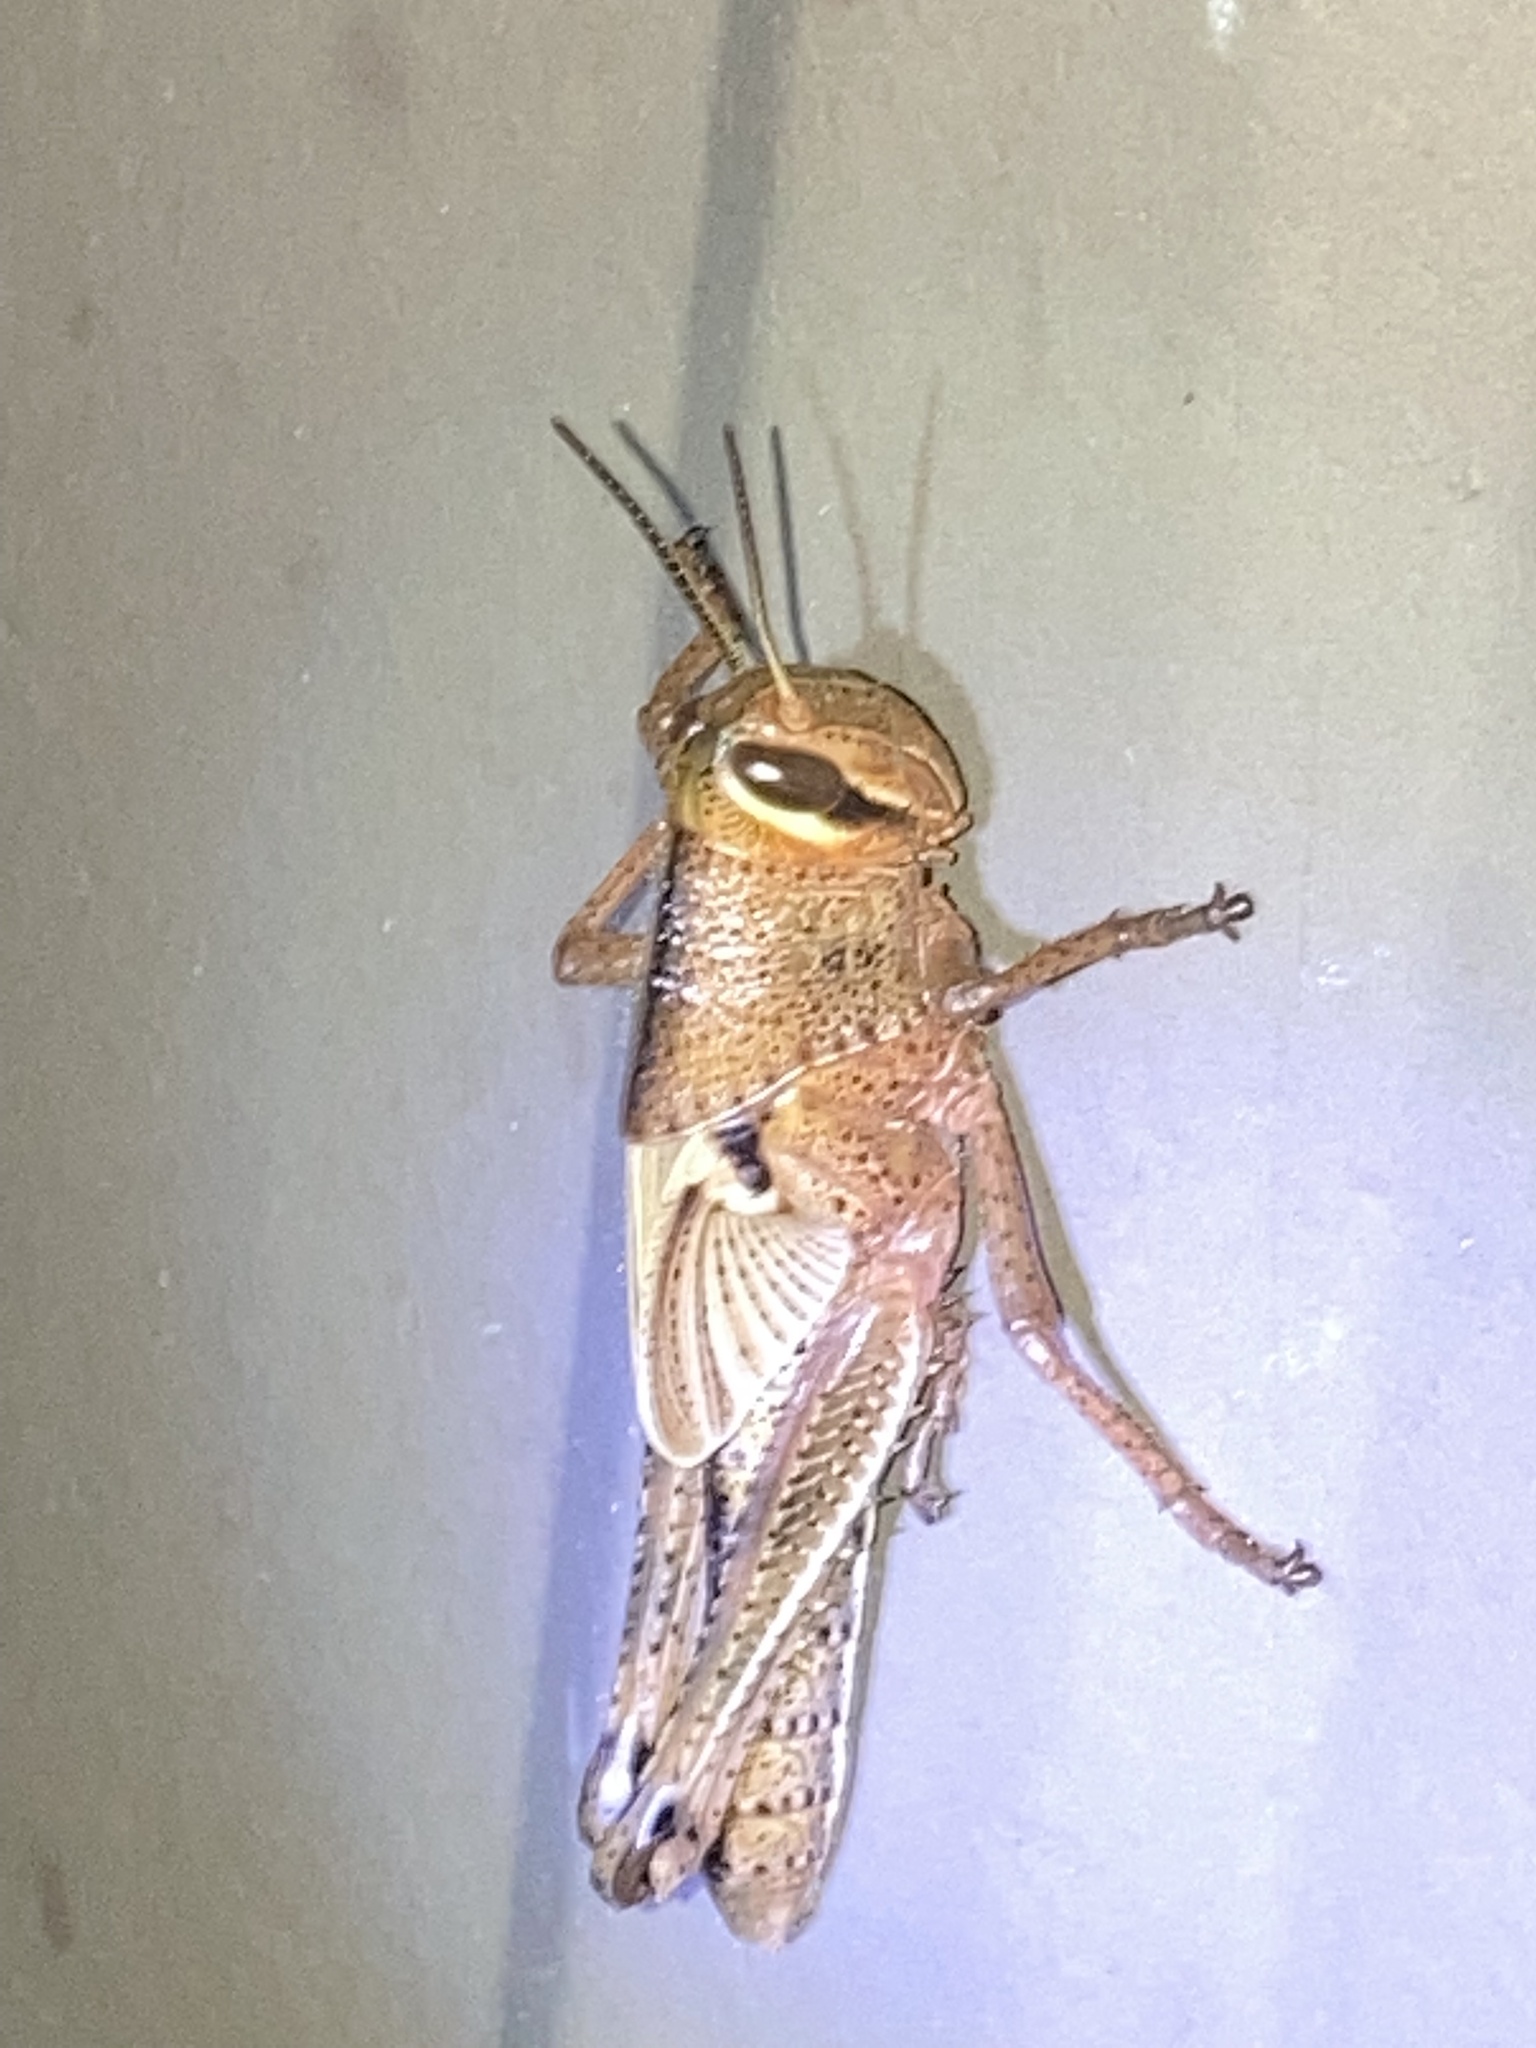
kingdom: Animalia
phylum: Arthropoda
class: Insecta
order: Orthoptera
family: Acrididae
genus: Schistocerca
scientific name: Schistocerca americana
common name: American bird locust
